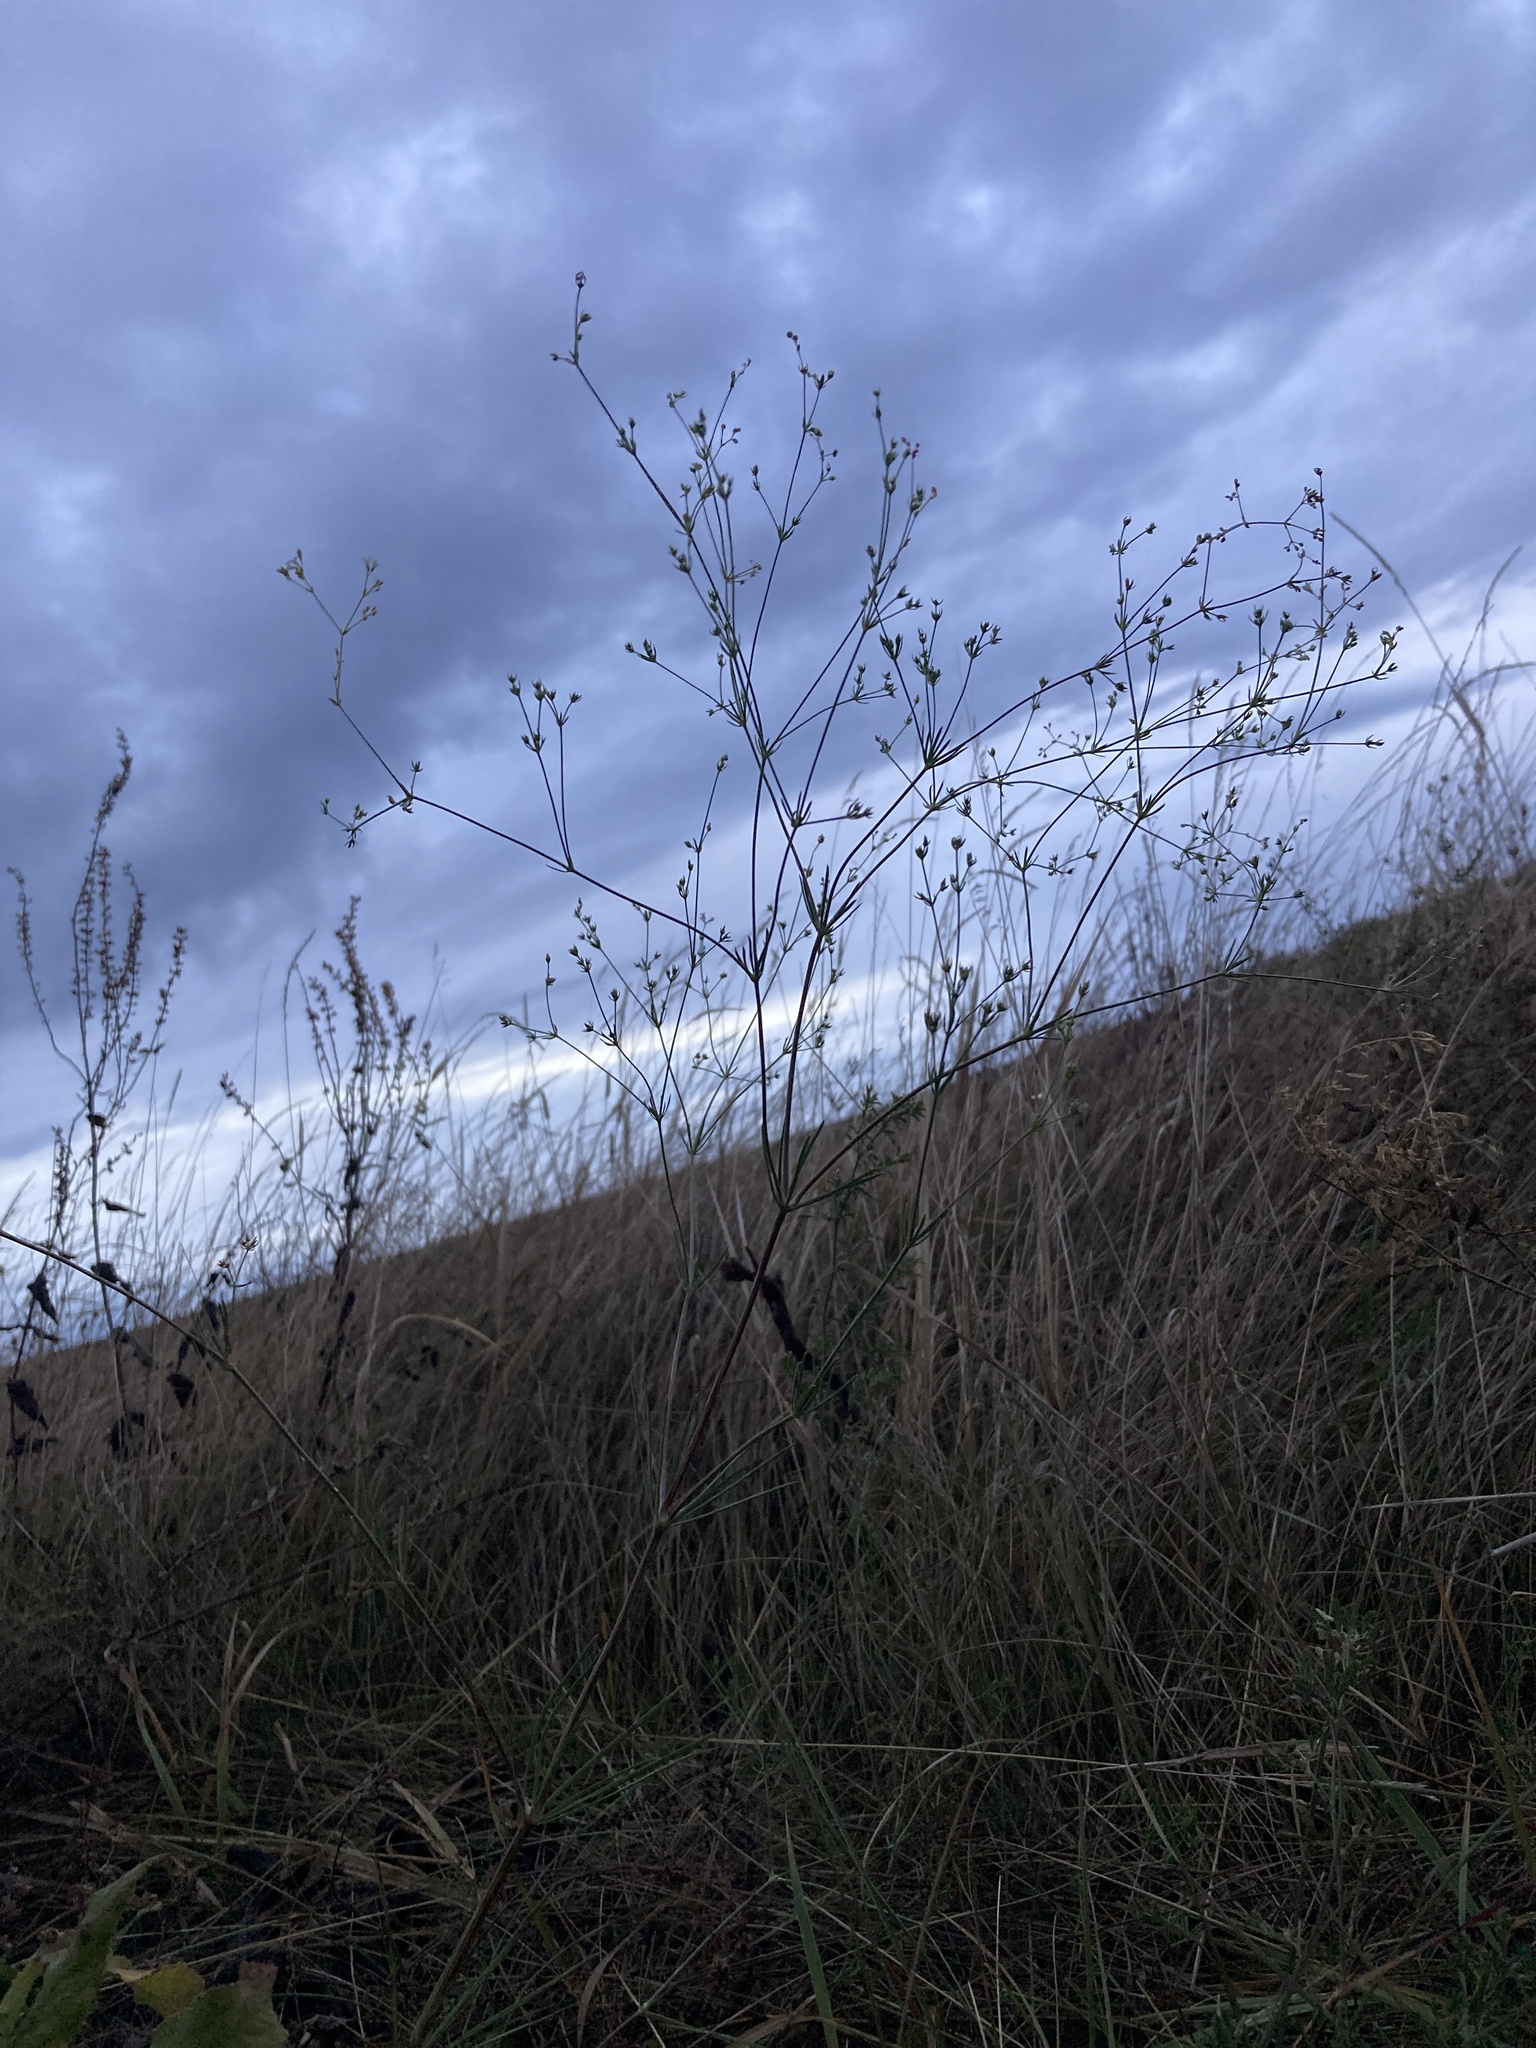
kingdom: Plantae
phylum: Tracheophyta
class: Magnoliopsida
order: Gentianales
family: Rubiaceae
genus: Galium
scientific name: Galium octonarium
